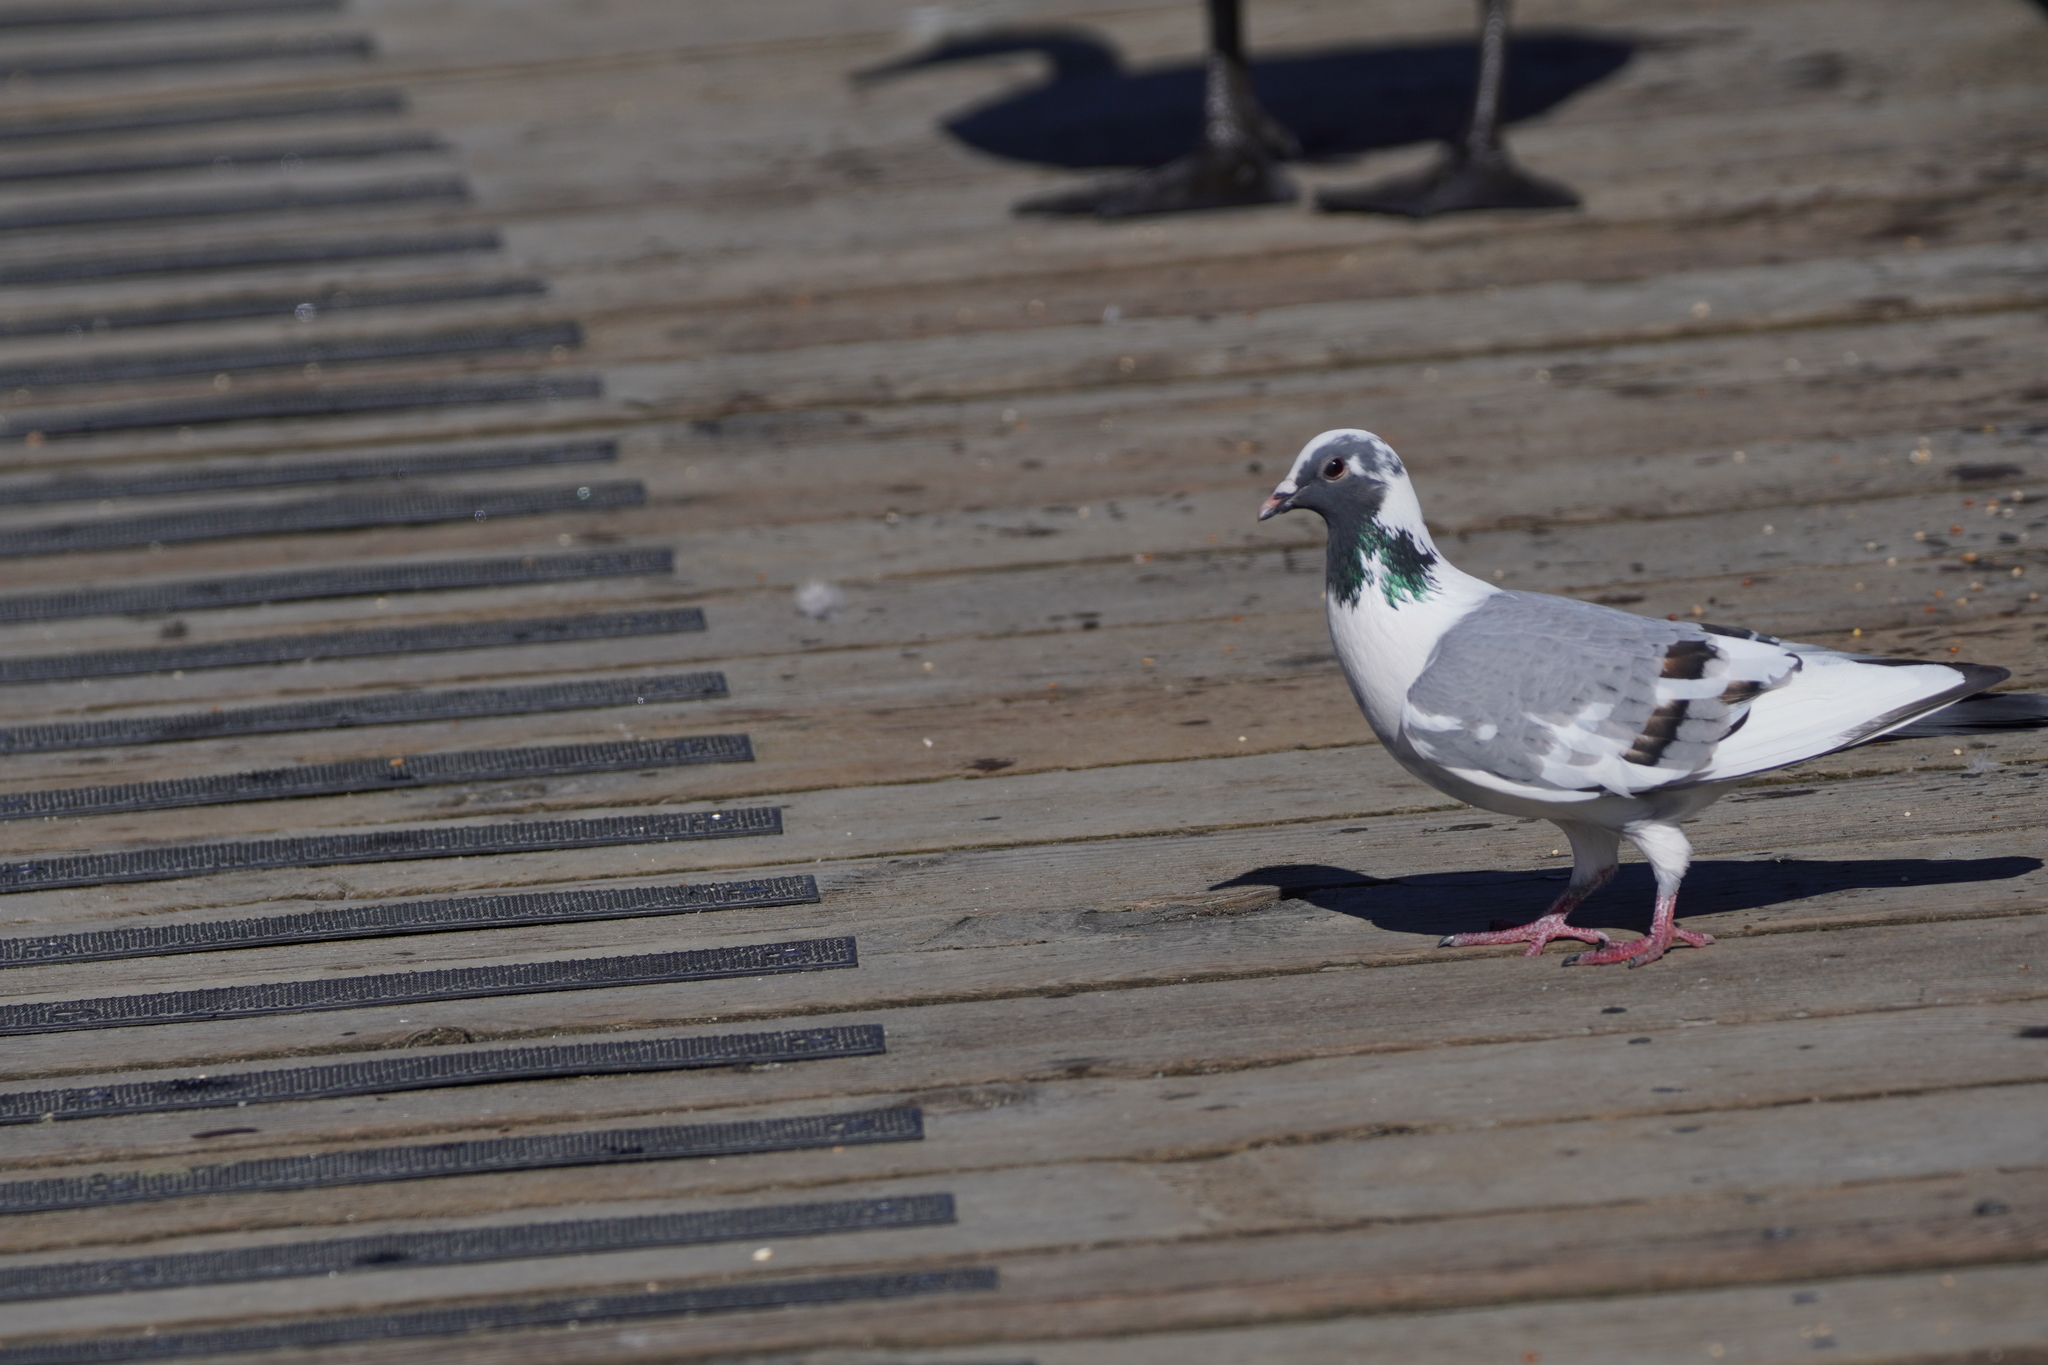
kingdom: Animalia
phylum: Chordata
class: Aves
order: Columbiformes
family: Columbidae
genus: Columba
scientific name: Columba livia
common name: Rock pigeon
